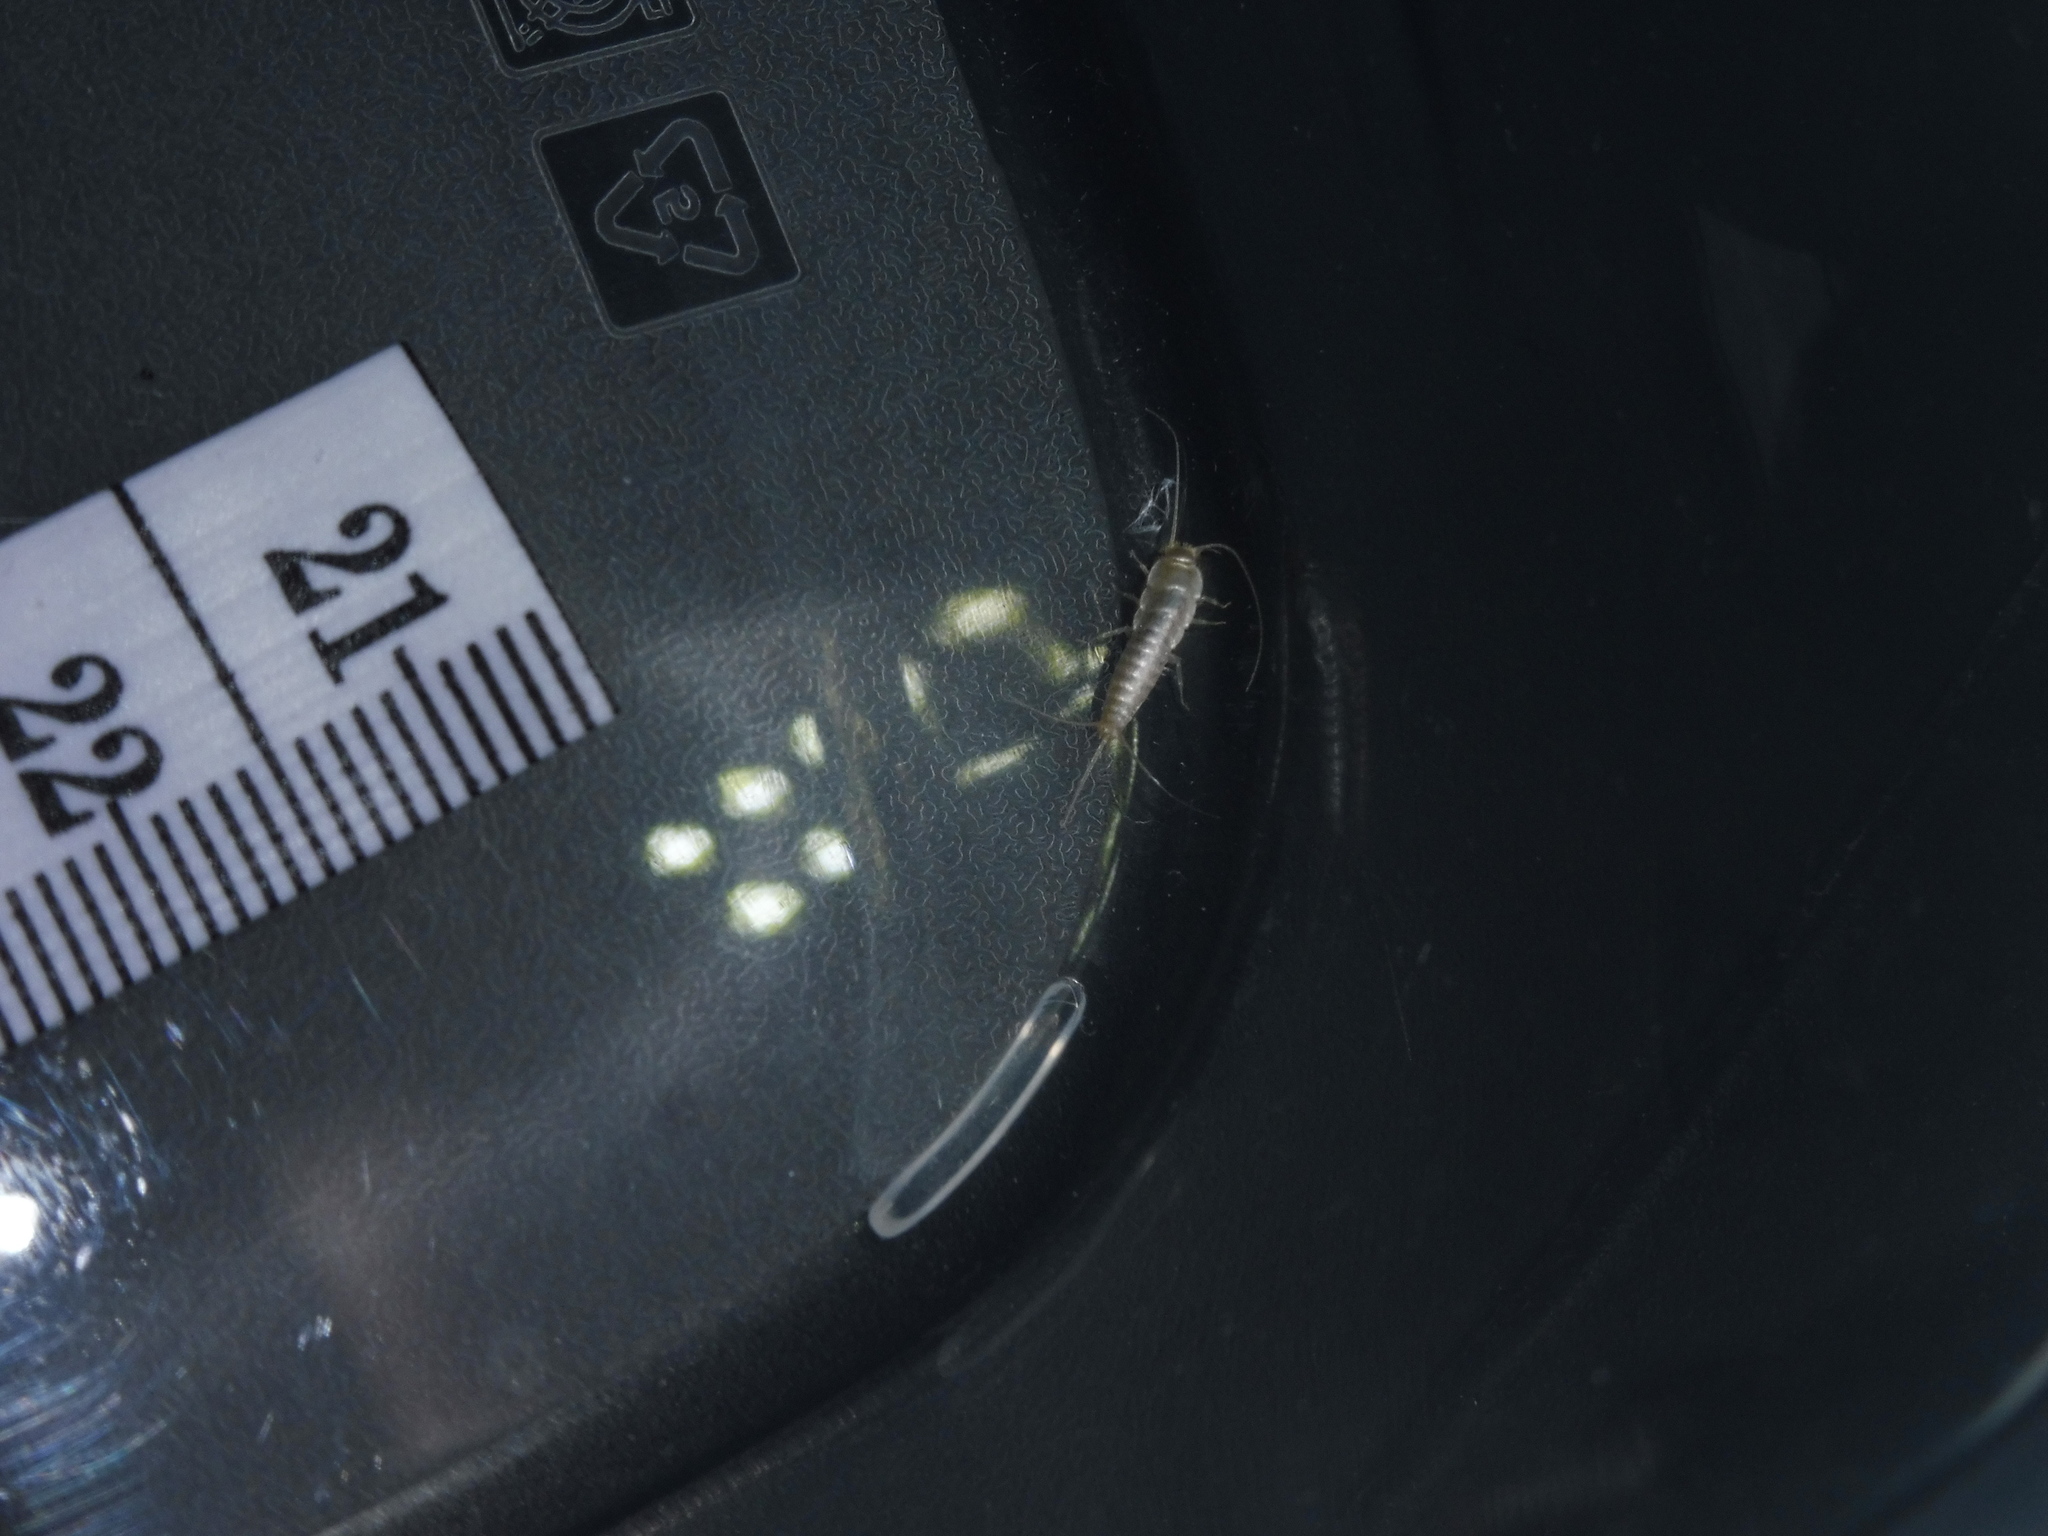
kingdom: Animalia
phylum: Arthropoda
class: Insecta
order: Zygentoma
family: Lepismatidae
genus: Ctenolepisma
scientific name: Ctenolepisma calvum
